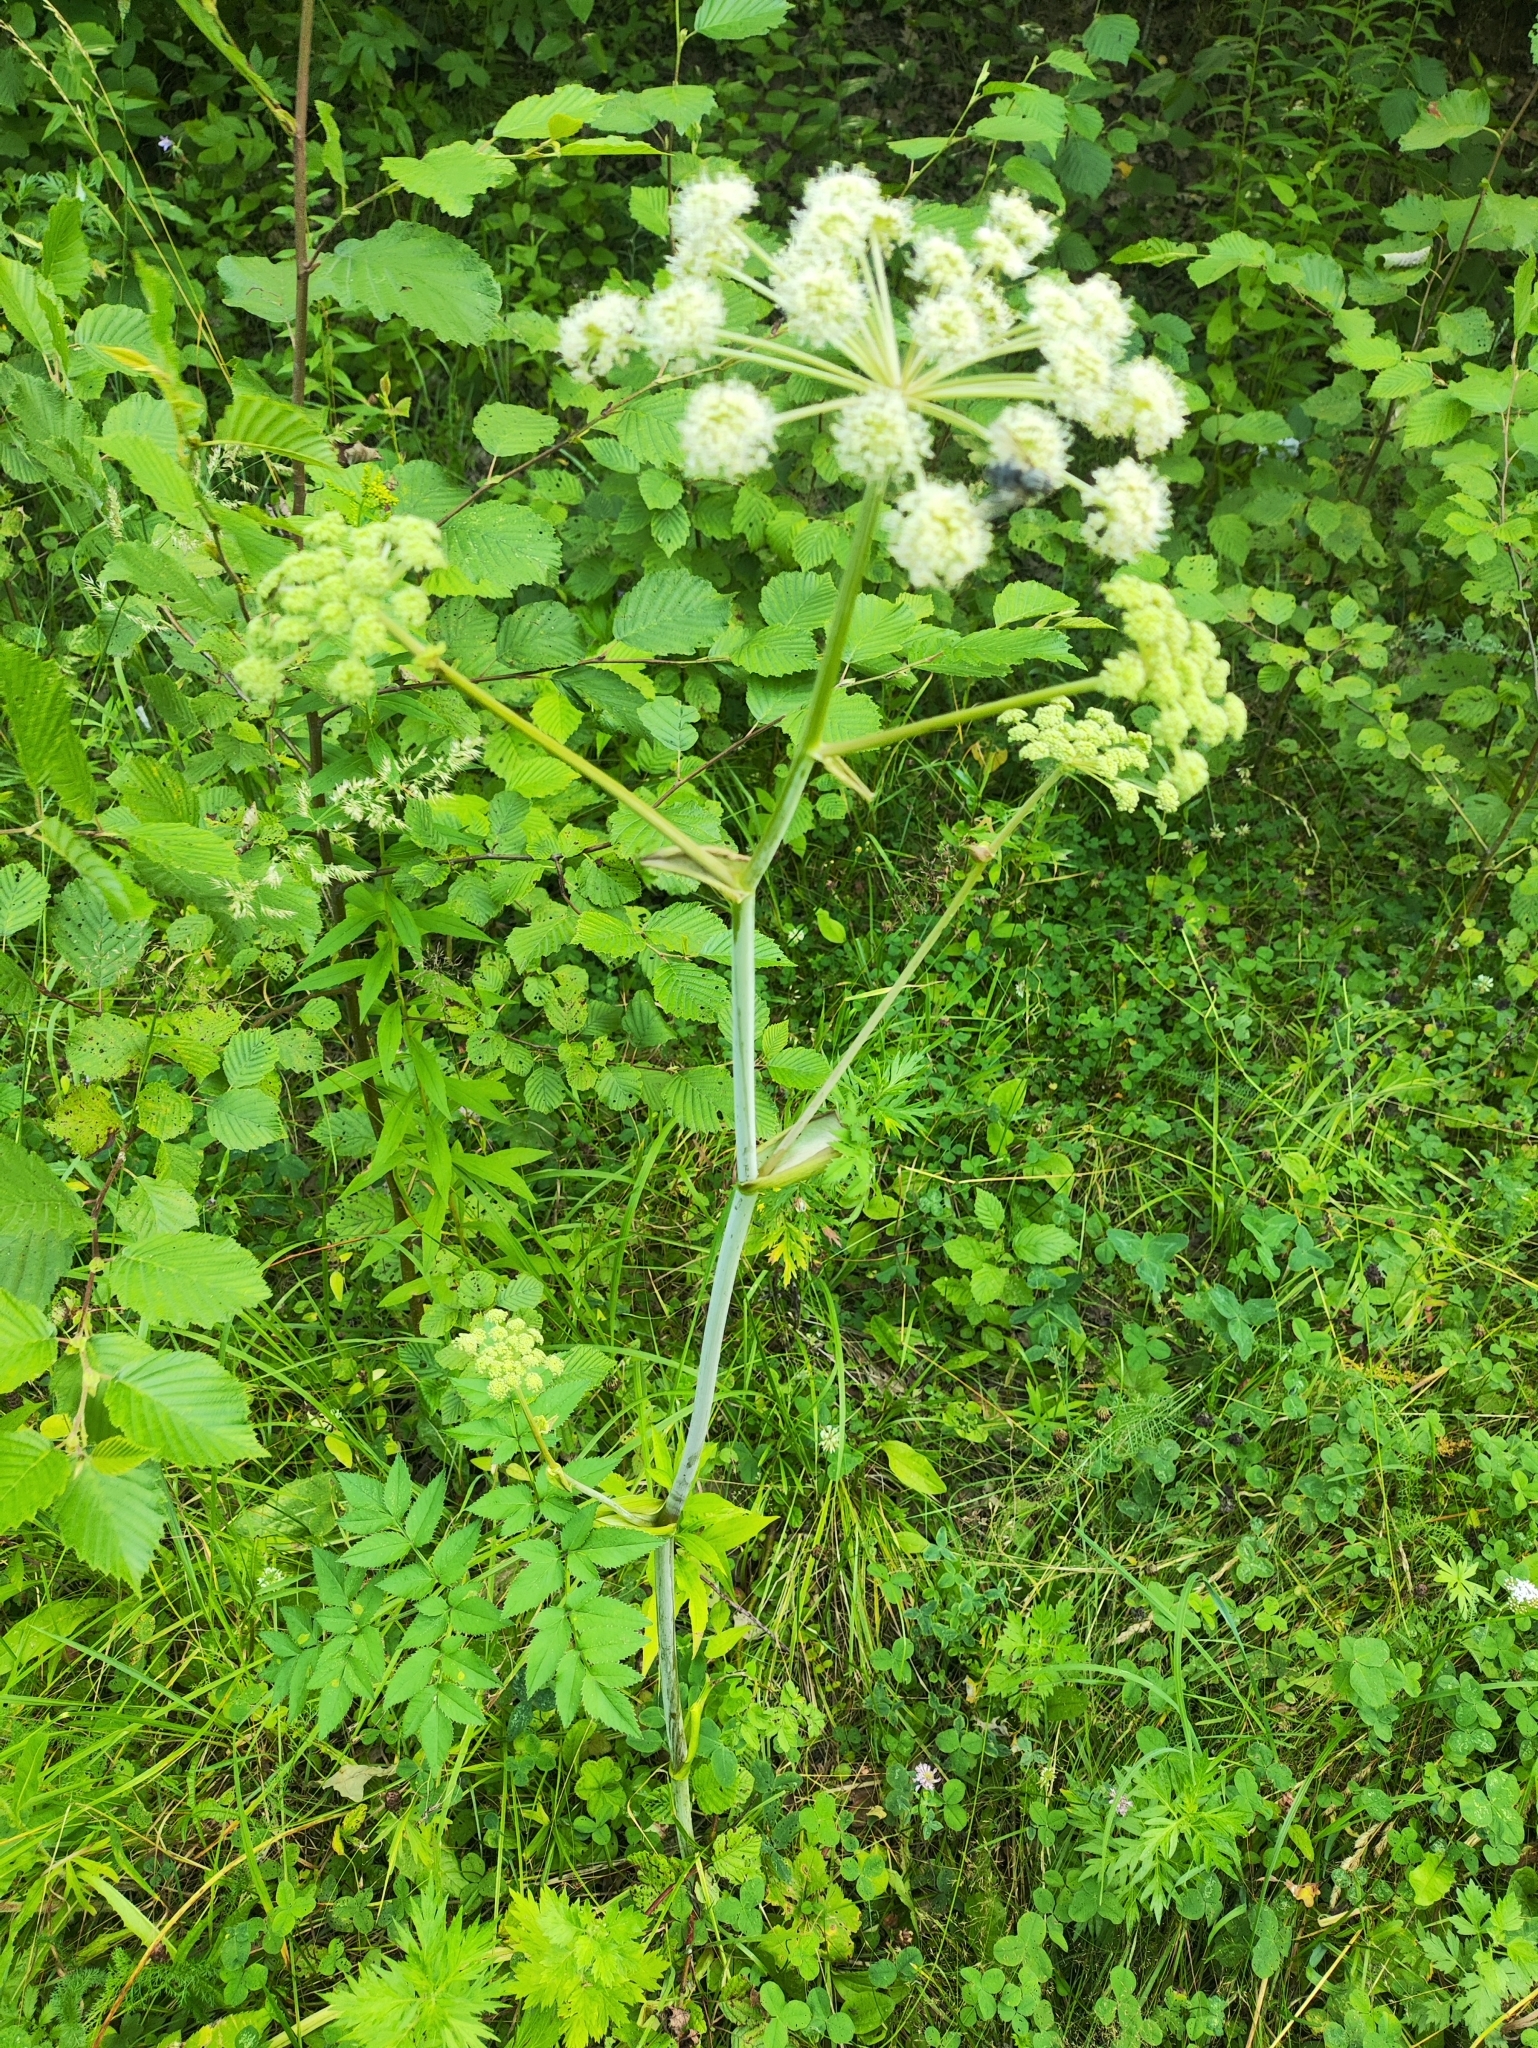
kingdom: Plantae
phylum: Tracheophyta
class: Magnoliopsida
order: Apiales
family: Apiaceae
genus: Angelica
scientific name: Angelica sylvestris
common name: Wild angelica
